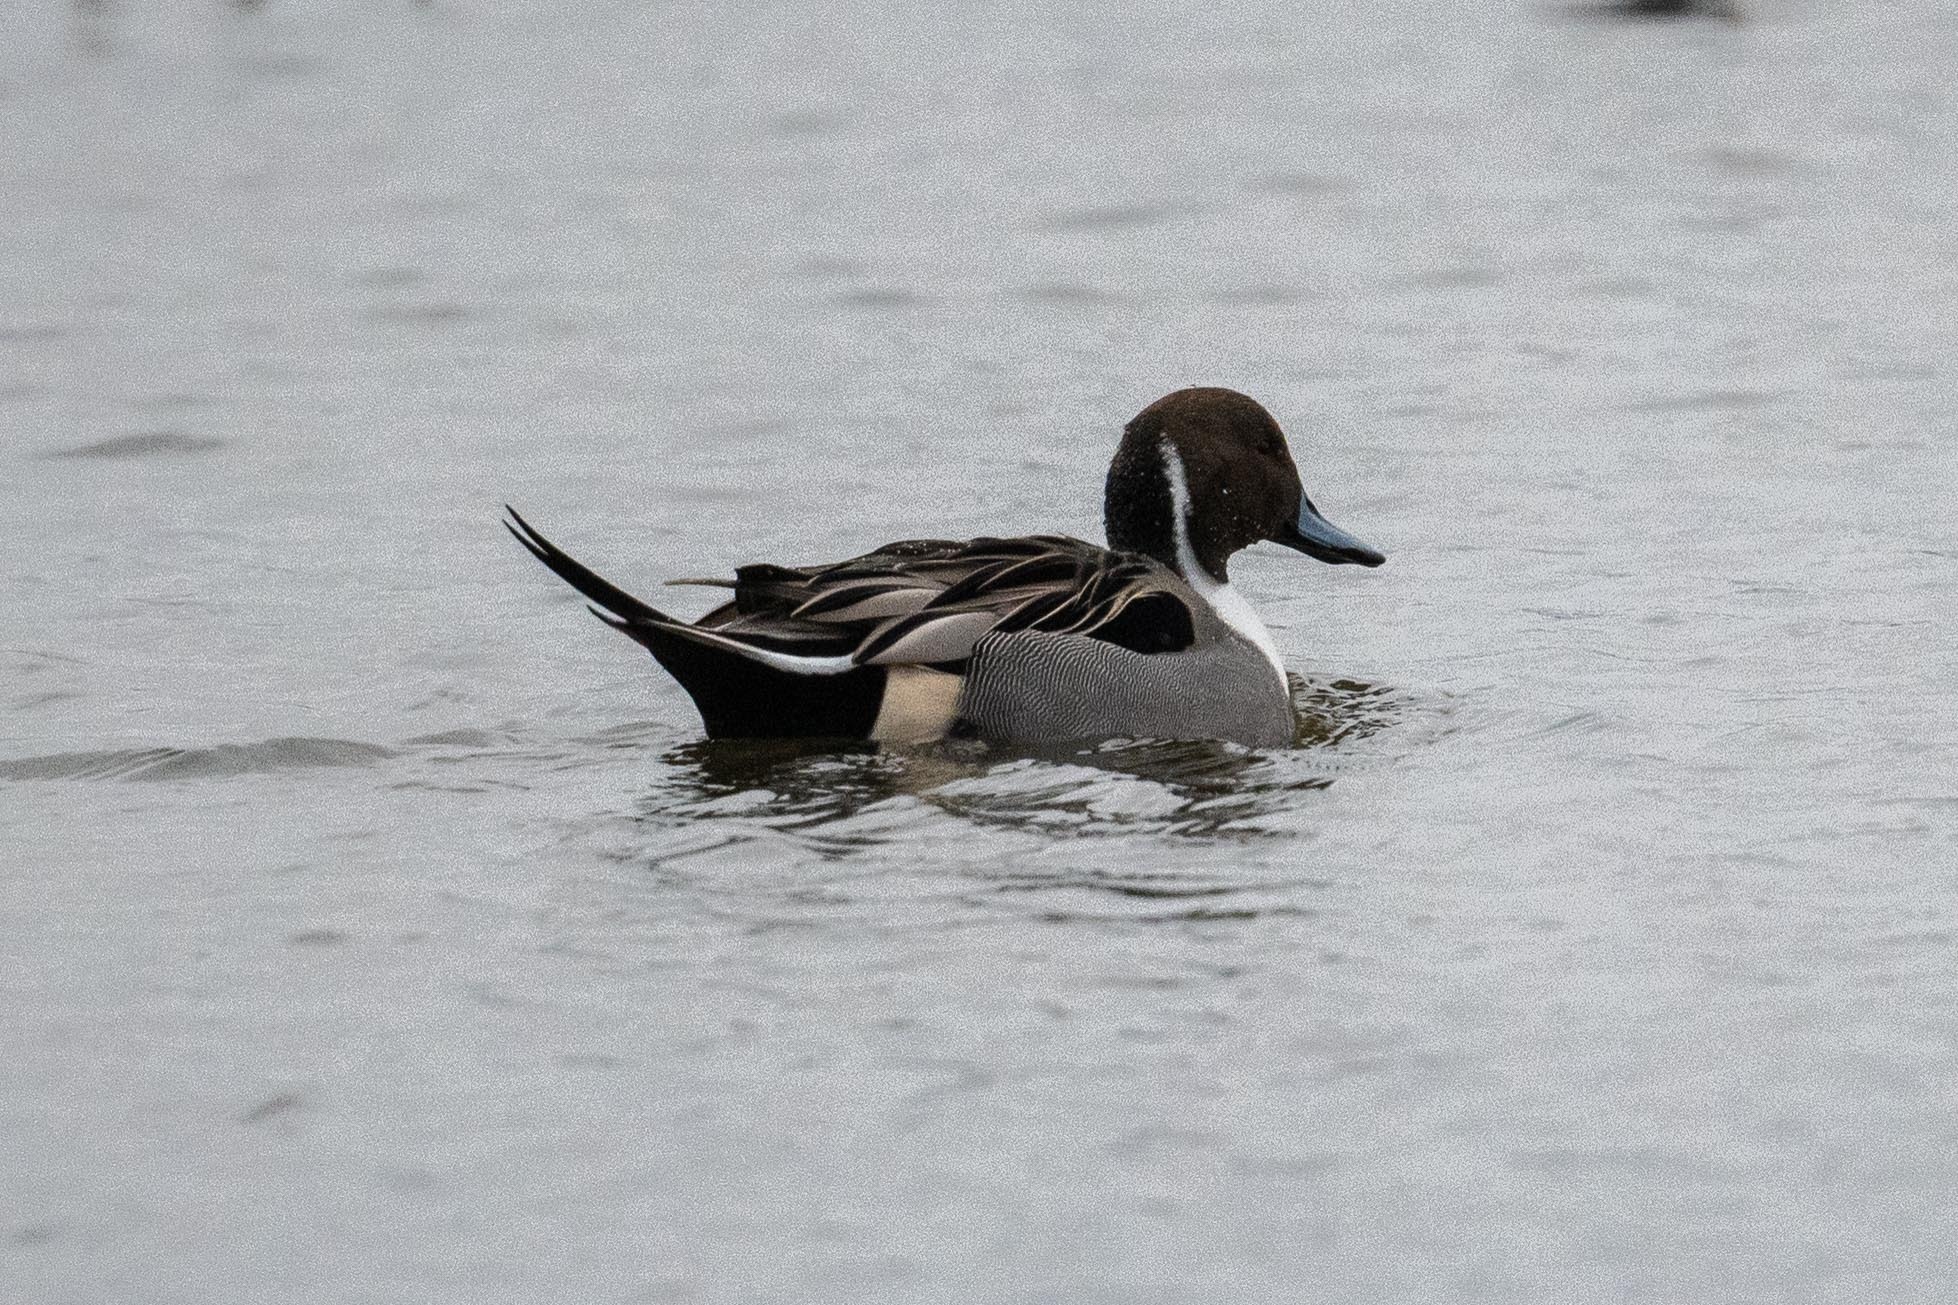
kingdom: Animalia
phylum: Chordata
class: Aves
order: Anseriformes
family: Anatidae
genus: Anas
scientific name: Anas acuta
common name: Northern pintail
